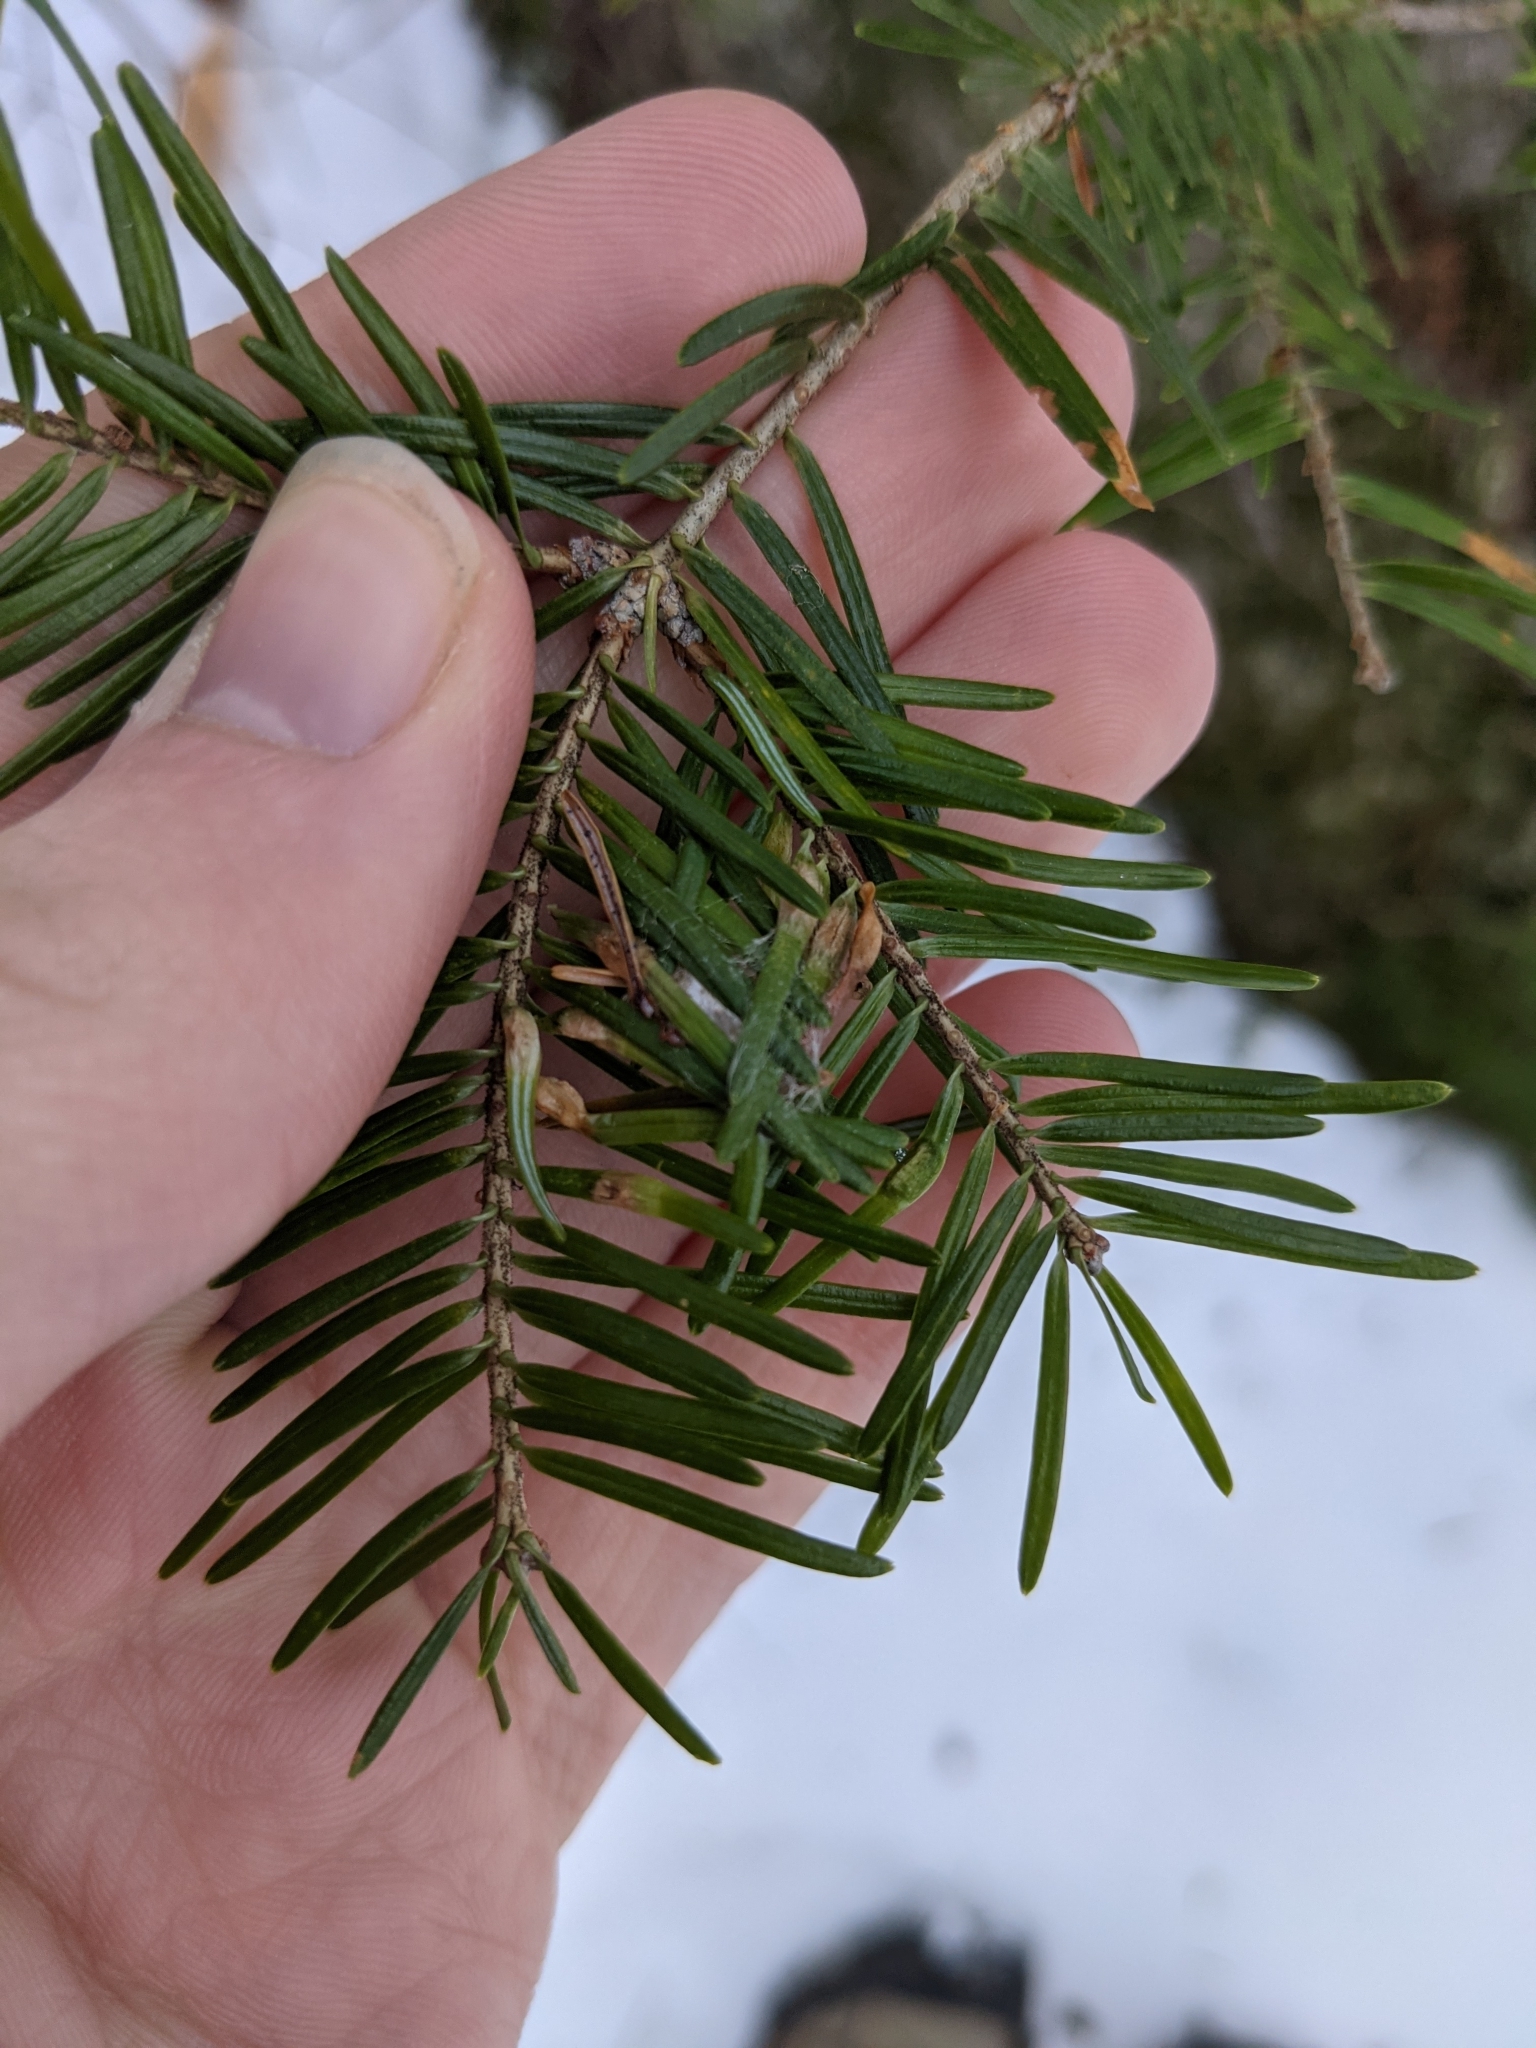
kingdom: Animalia
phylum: Arthropoda
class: Insecta
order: Diptera
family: Cecidomyiidae
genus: Paradiplosis
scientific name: Paradiplosis tumifex
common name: Gall midge
